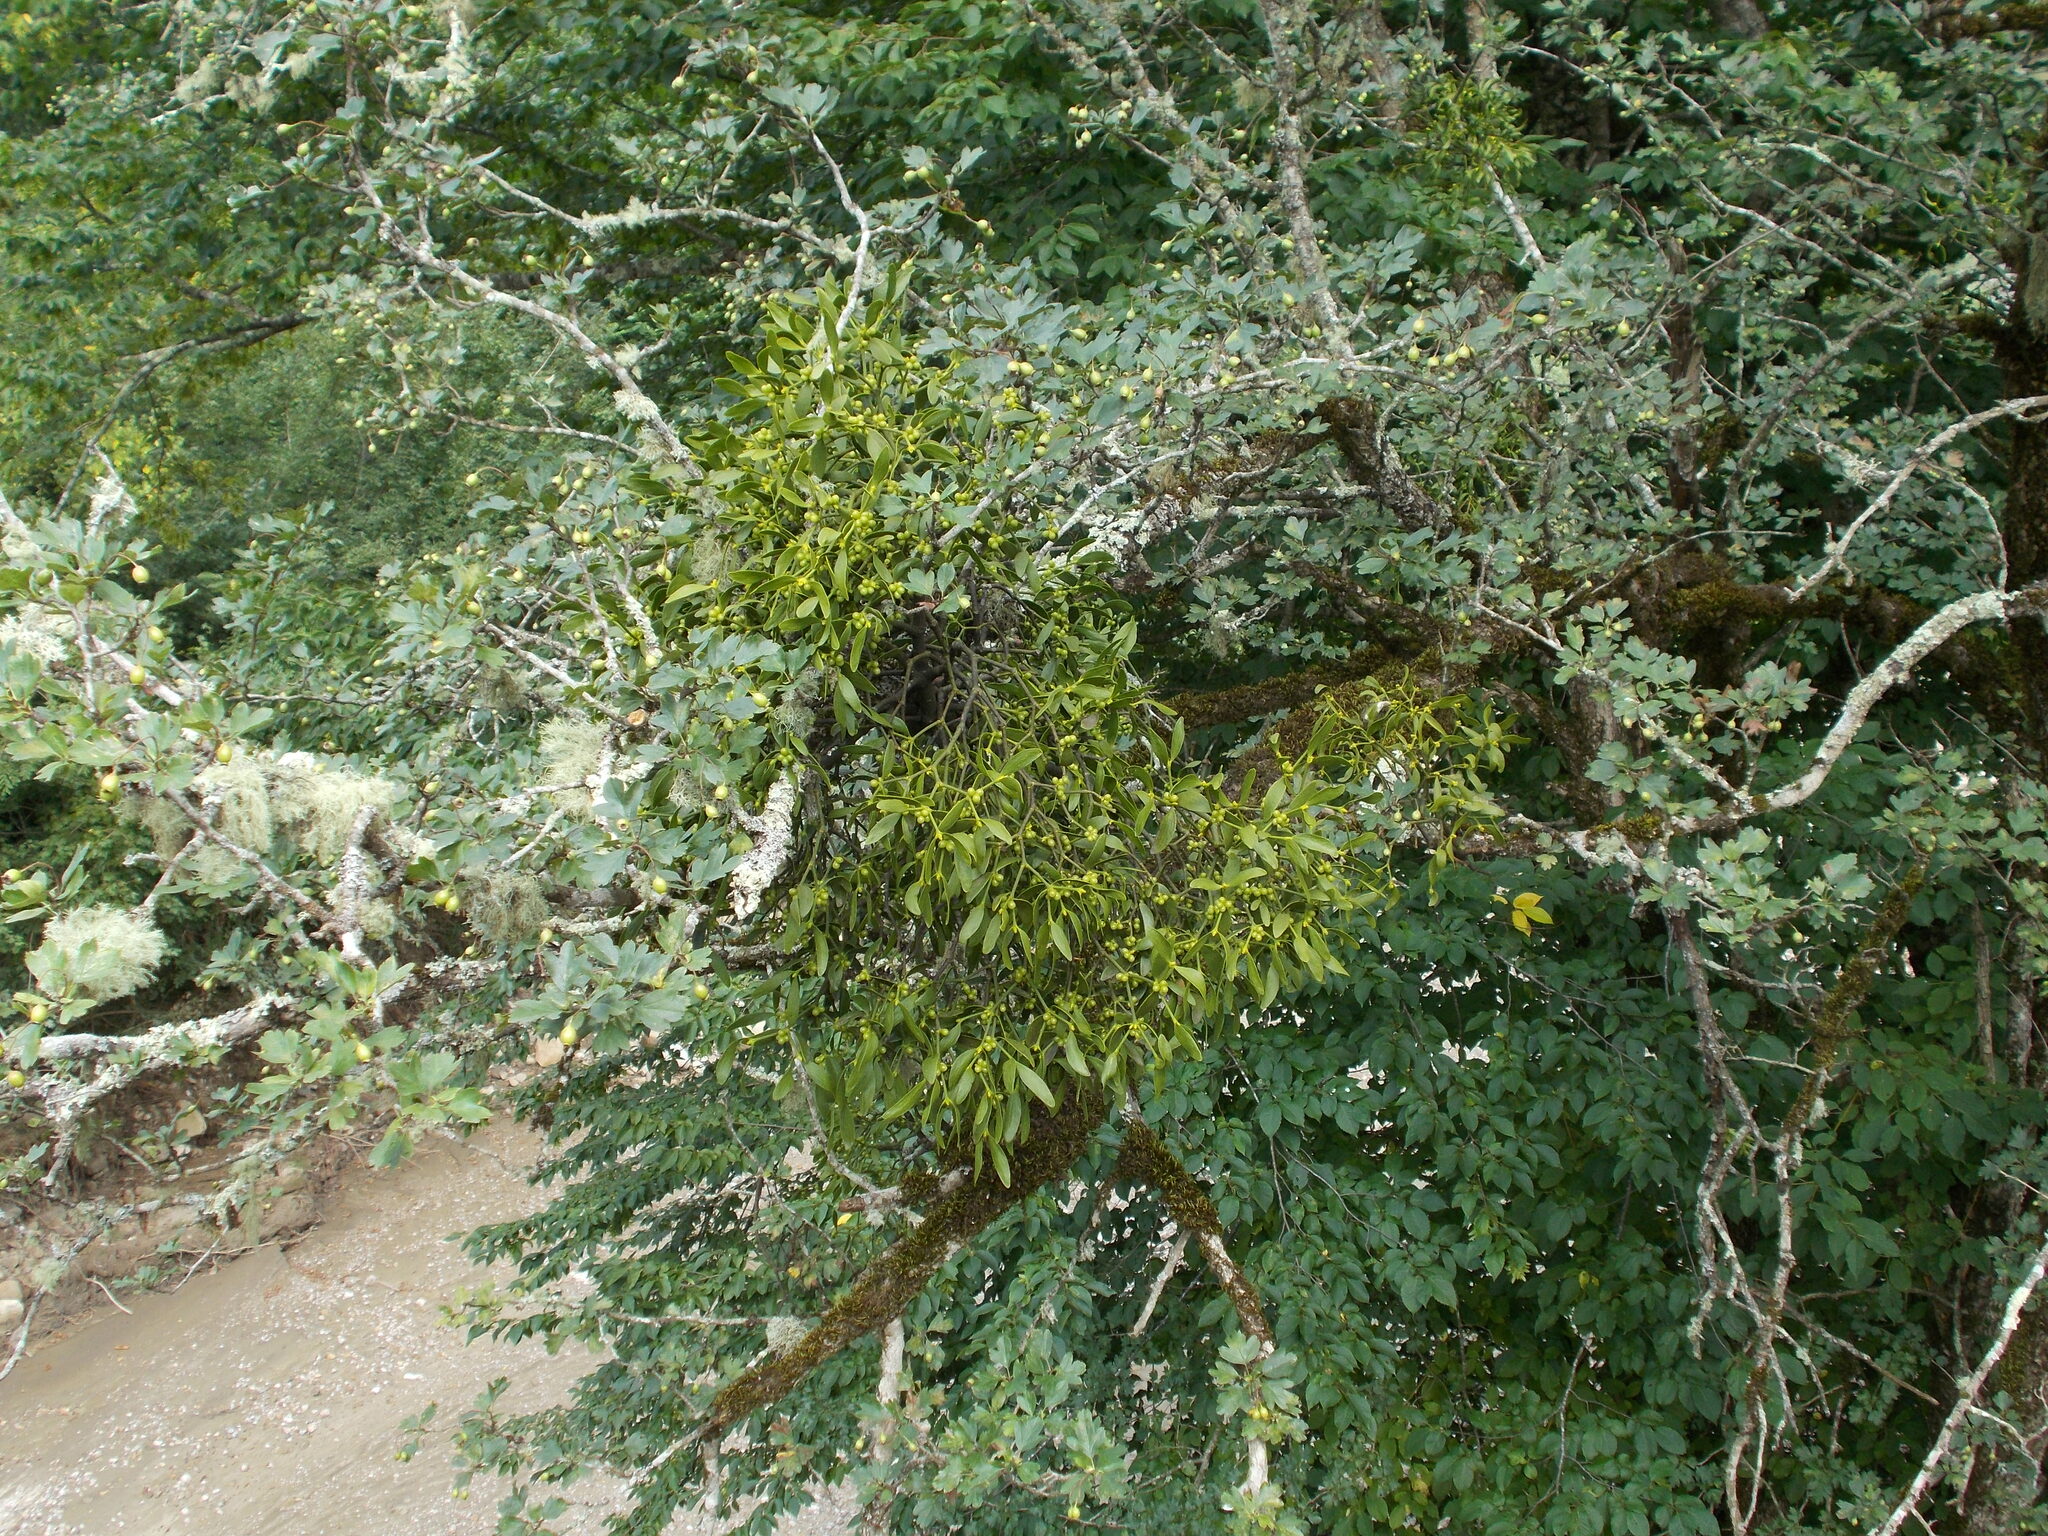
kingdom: Plantae
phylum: Tracheophyta
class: Magnoliopsida
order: Santalales
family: Viscaceae
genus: Viscum
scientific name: Viscum album
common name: Mistletoe
